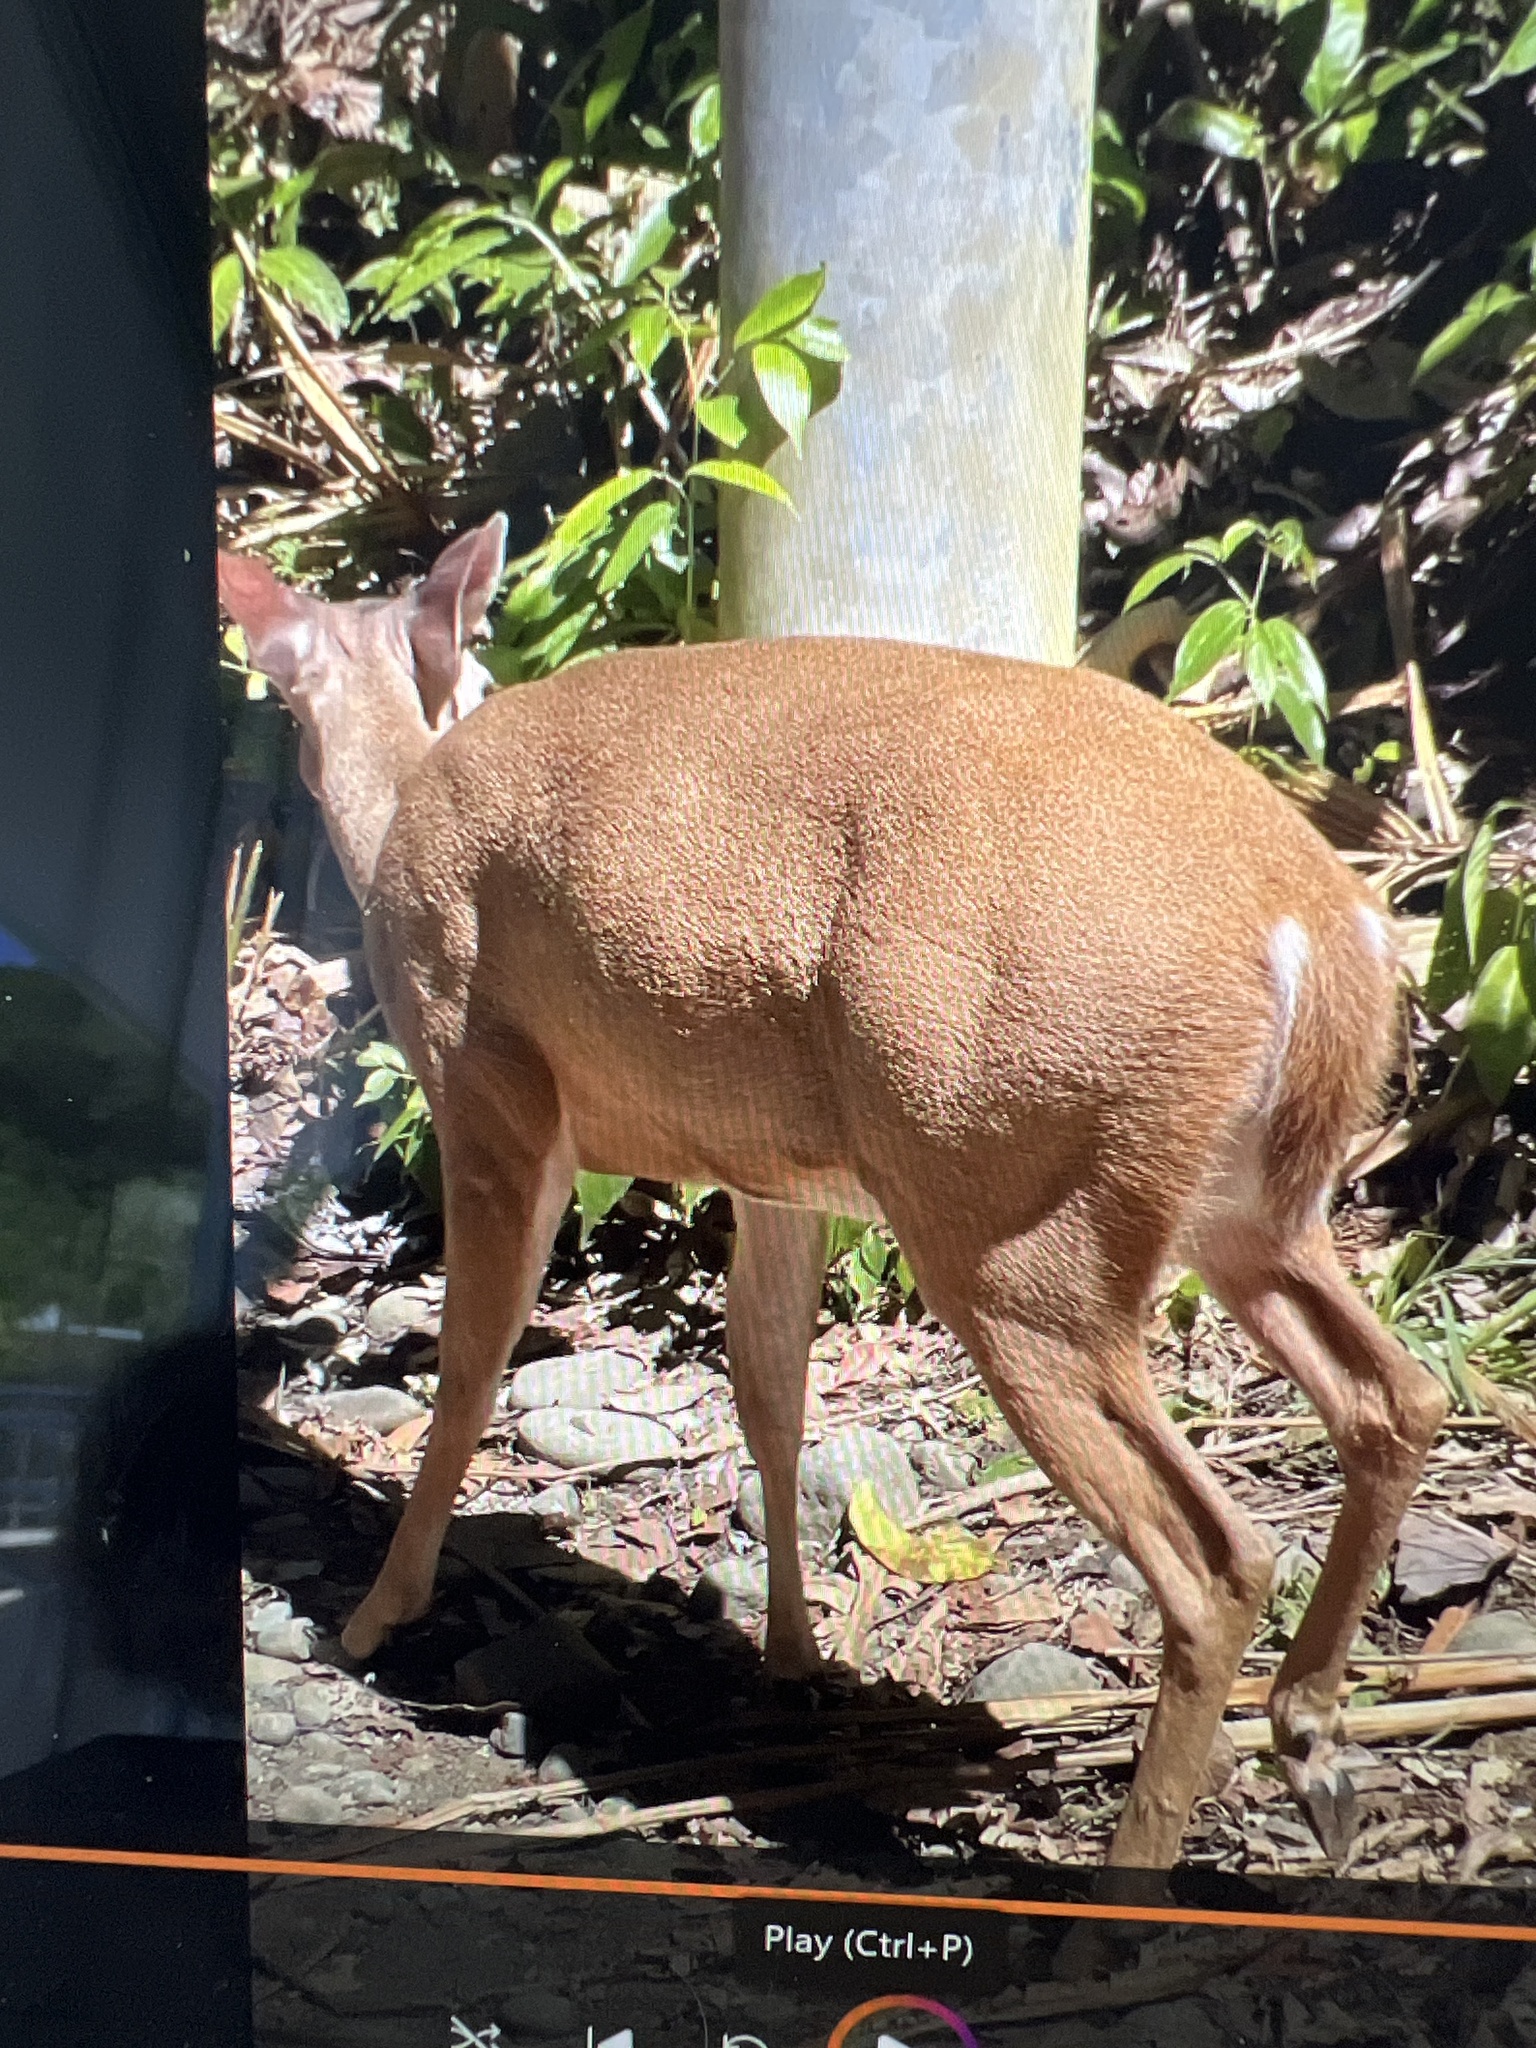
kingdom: Animalia
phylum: Chordata
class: Mammalia
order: Artiodactyla
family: Cervidae
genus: Odocoileus
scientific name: Odocoileus virginianus
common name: White-tailed deer
